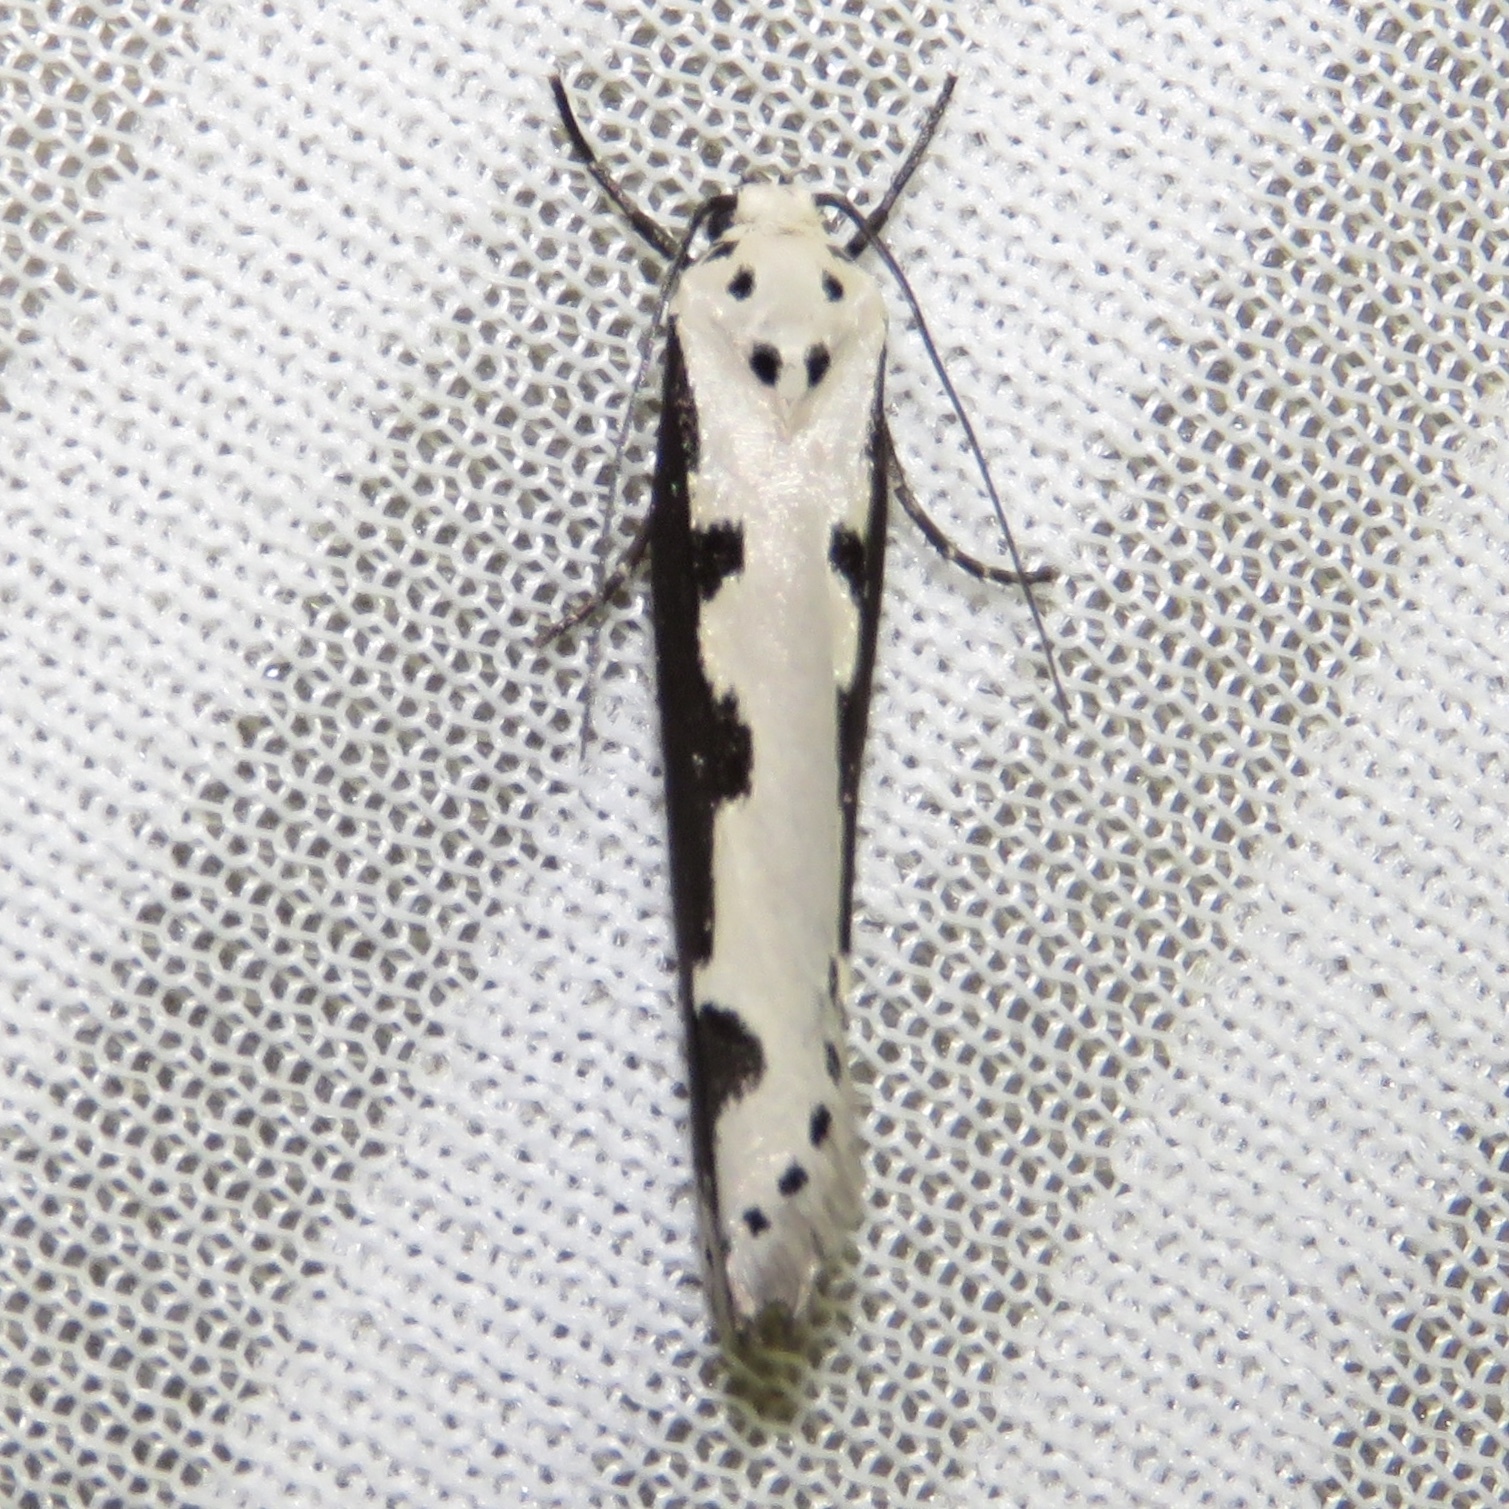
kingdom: Animalia
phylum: Arthropoda
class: Insecta
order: Lepidoptera
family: Ethmiidae
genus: Ethmia
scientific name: Ethmia bipunctella
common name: Bordered ermel
